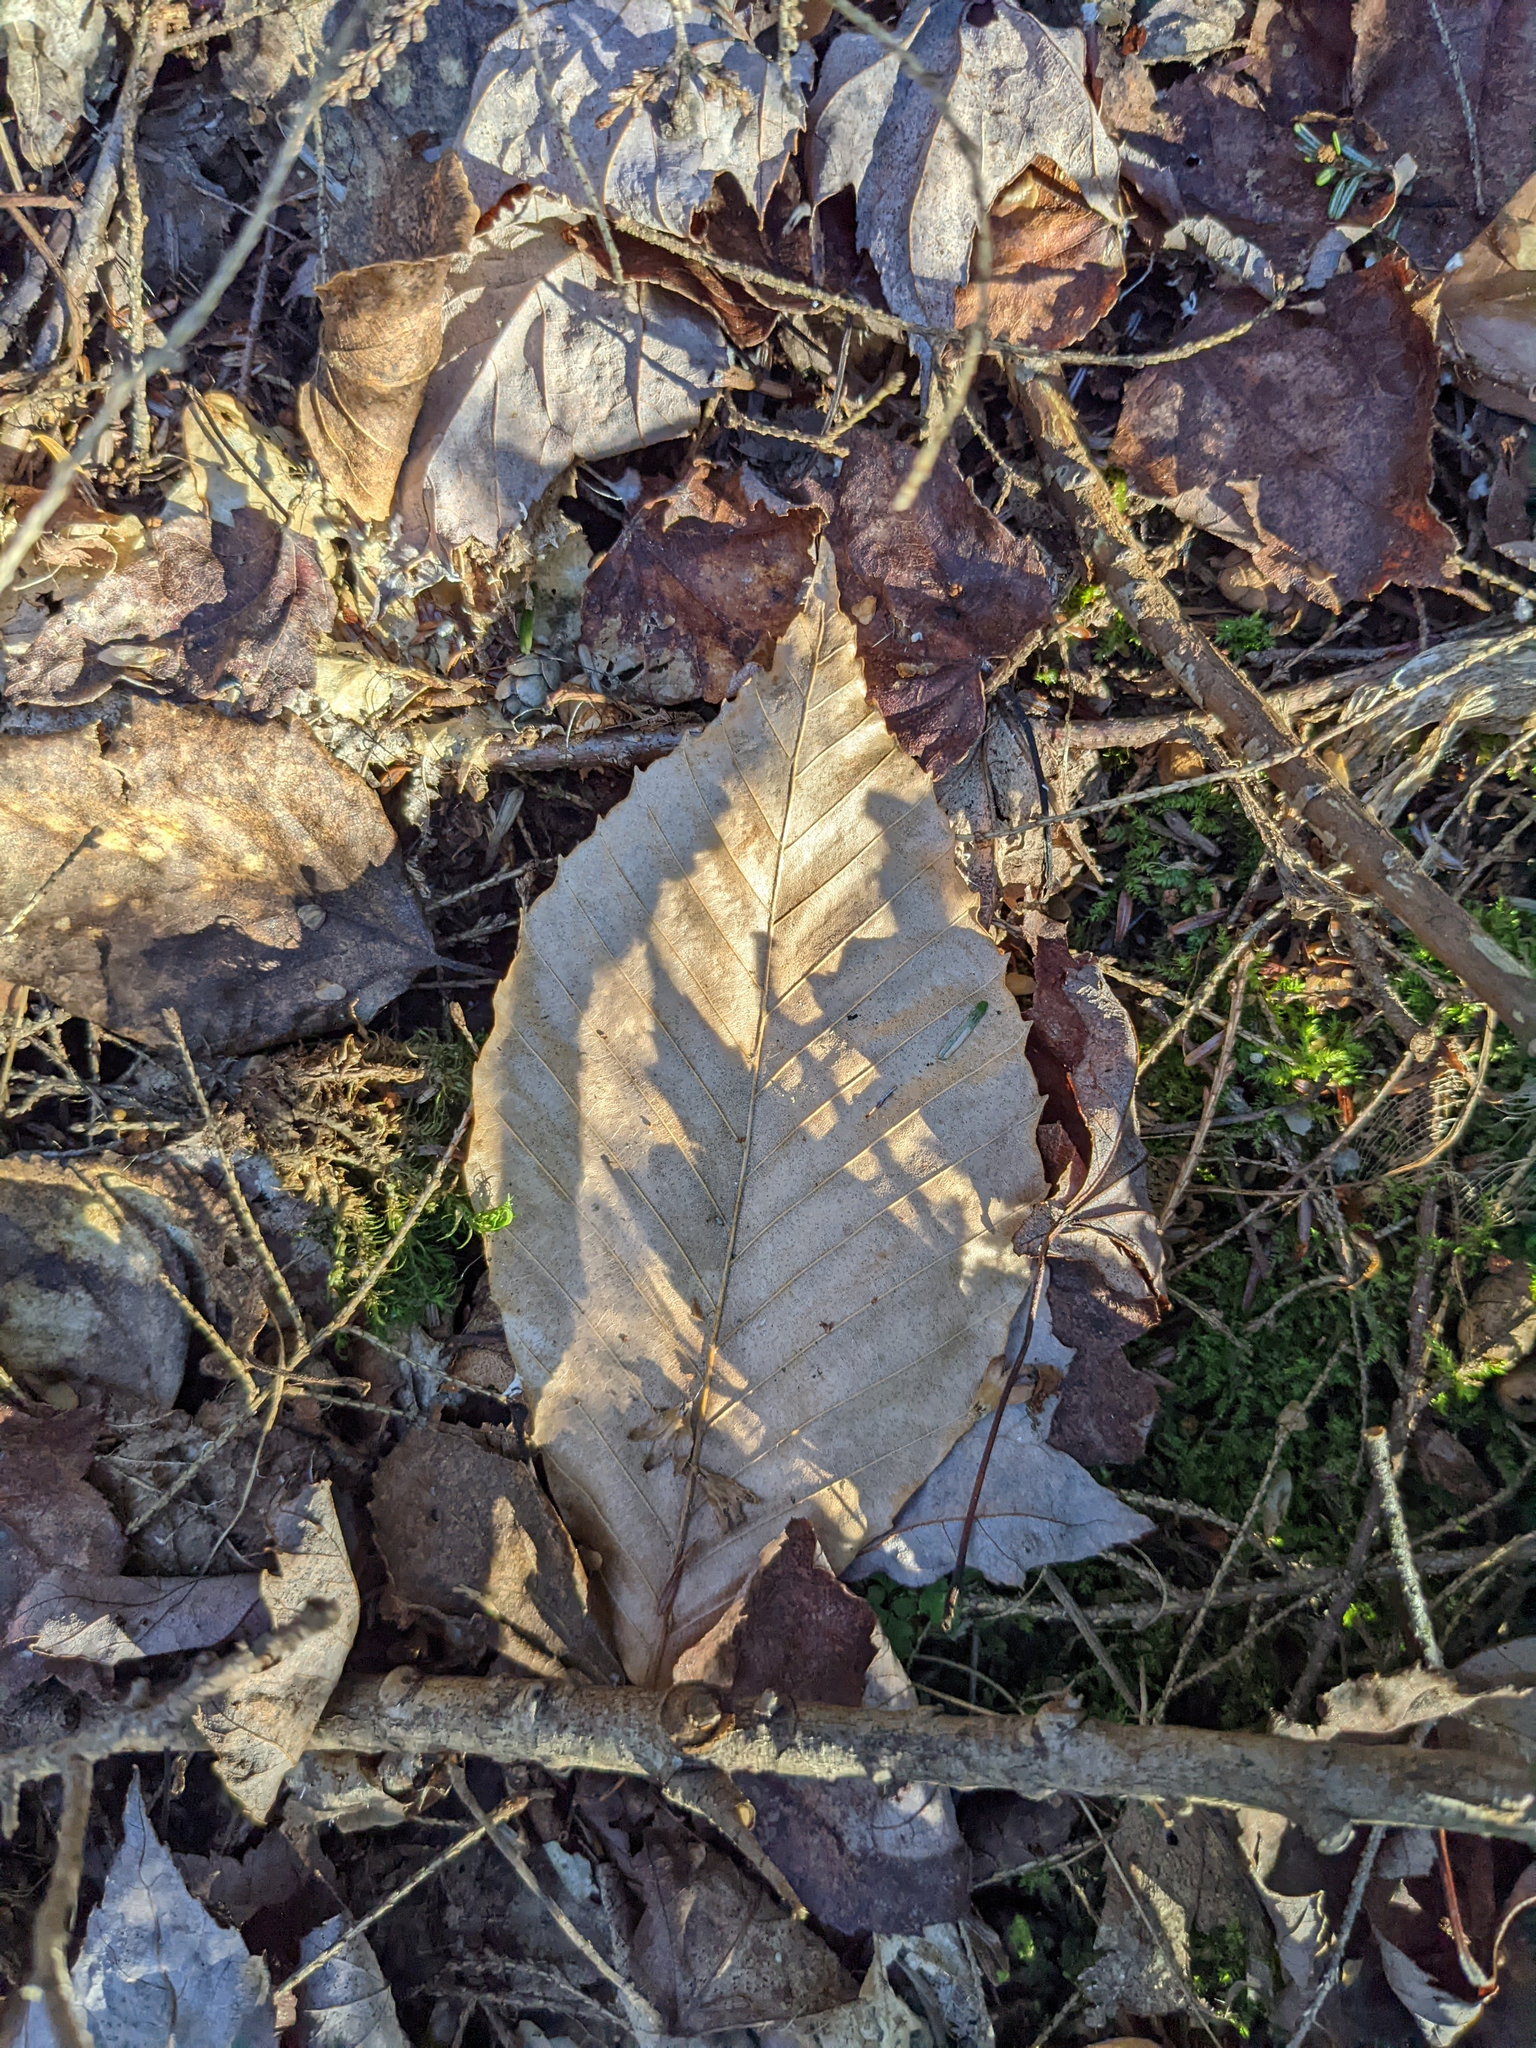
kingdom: Plantae
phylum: Tracheophyta
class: Magnoliopsida
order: Fagales
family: Fagaceae
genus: Fagus
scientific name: Fagus grandifolia
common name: American beech
